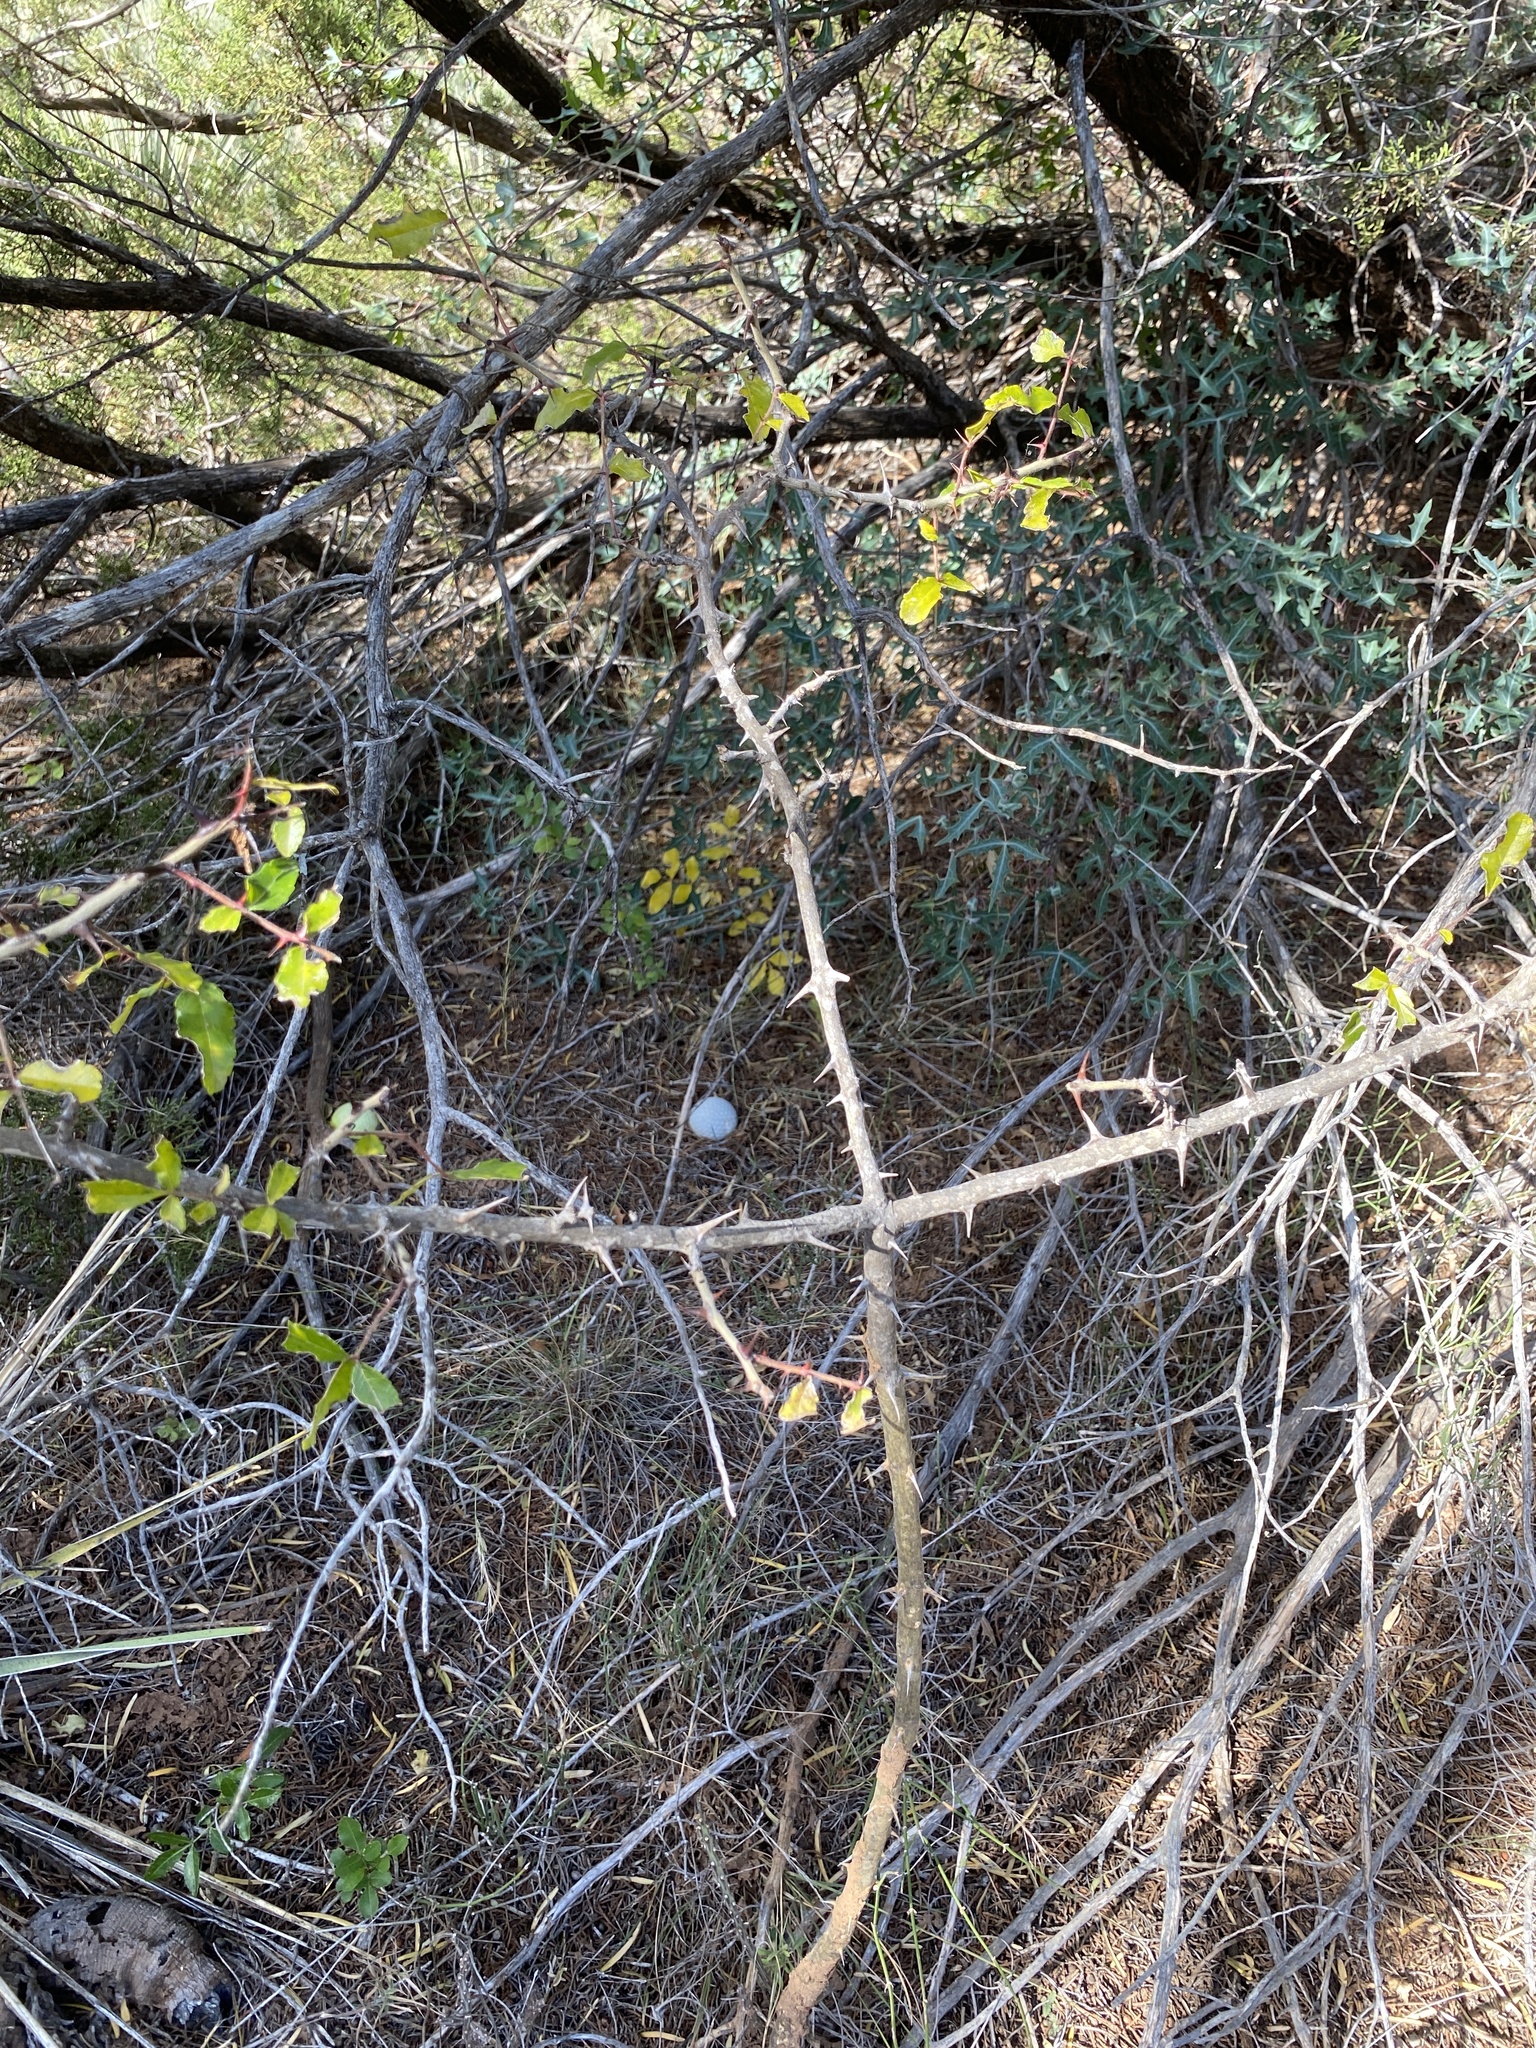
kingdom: Plantae
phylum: Tracheophyta
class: Magnoliopsida
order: Sapindales
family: Rutaceae
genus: Zanthoxylum
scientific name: Zanthoxylum clava-herculis
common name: Hercules'-club
